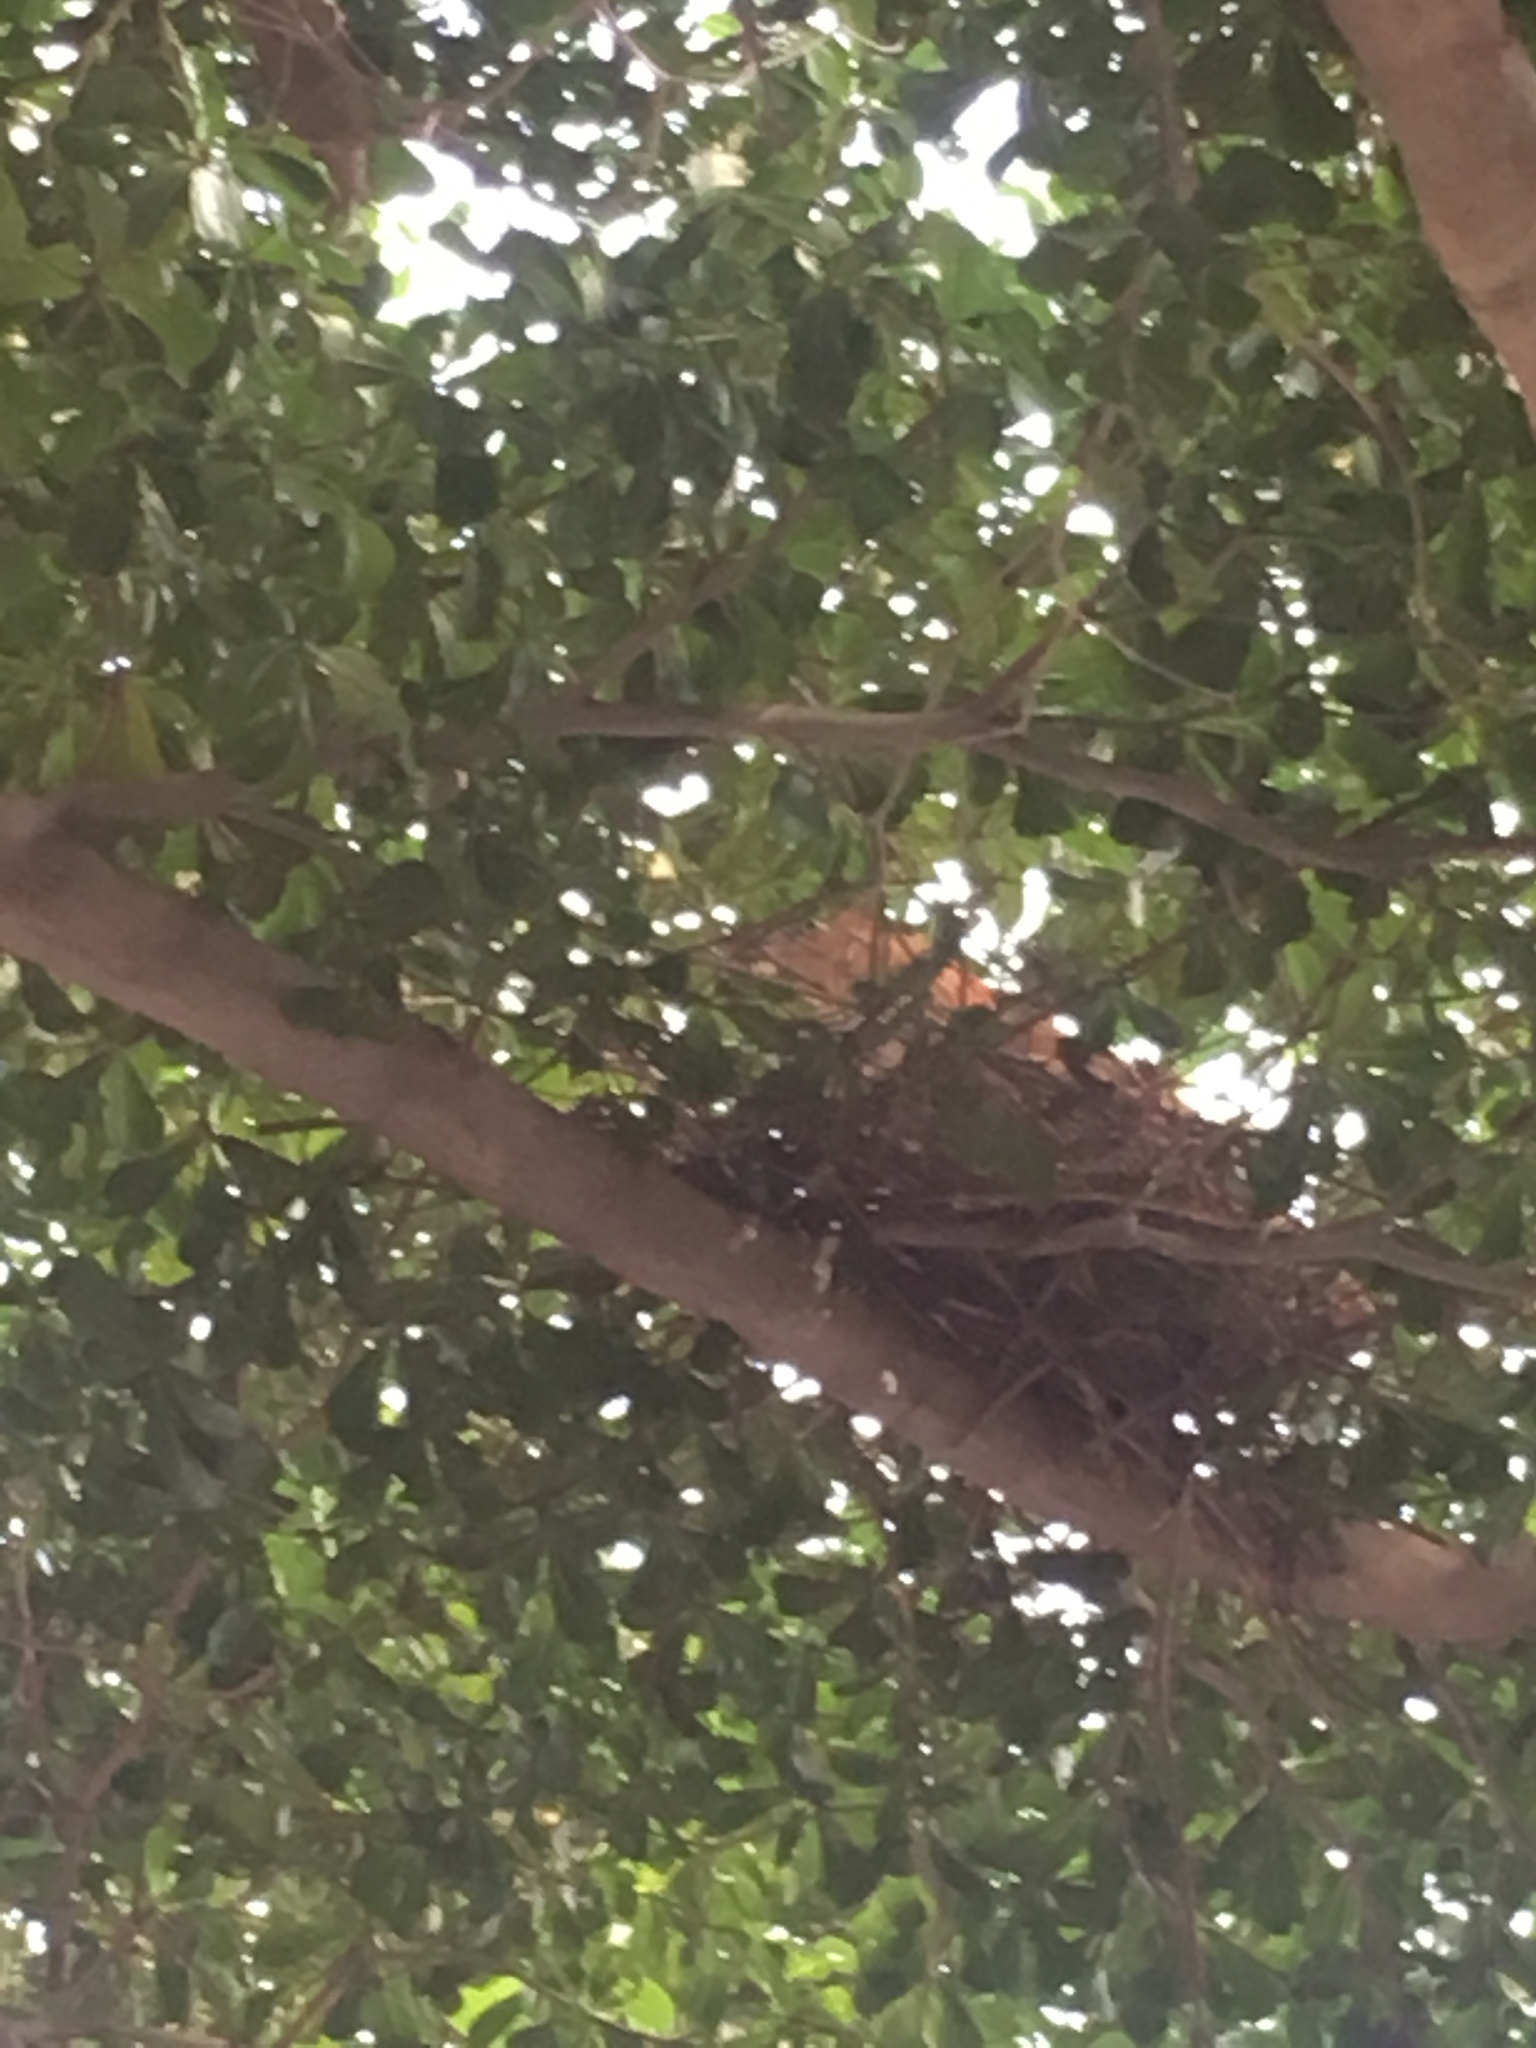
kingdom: Animalia
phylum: Chordata
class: Aves
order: Pelecaniformes
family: Ardeidae
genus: Gorsachius
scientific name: Gorsachius melanolophus
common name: Malayan night heron
